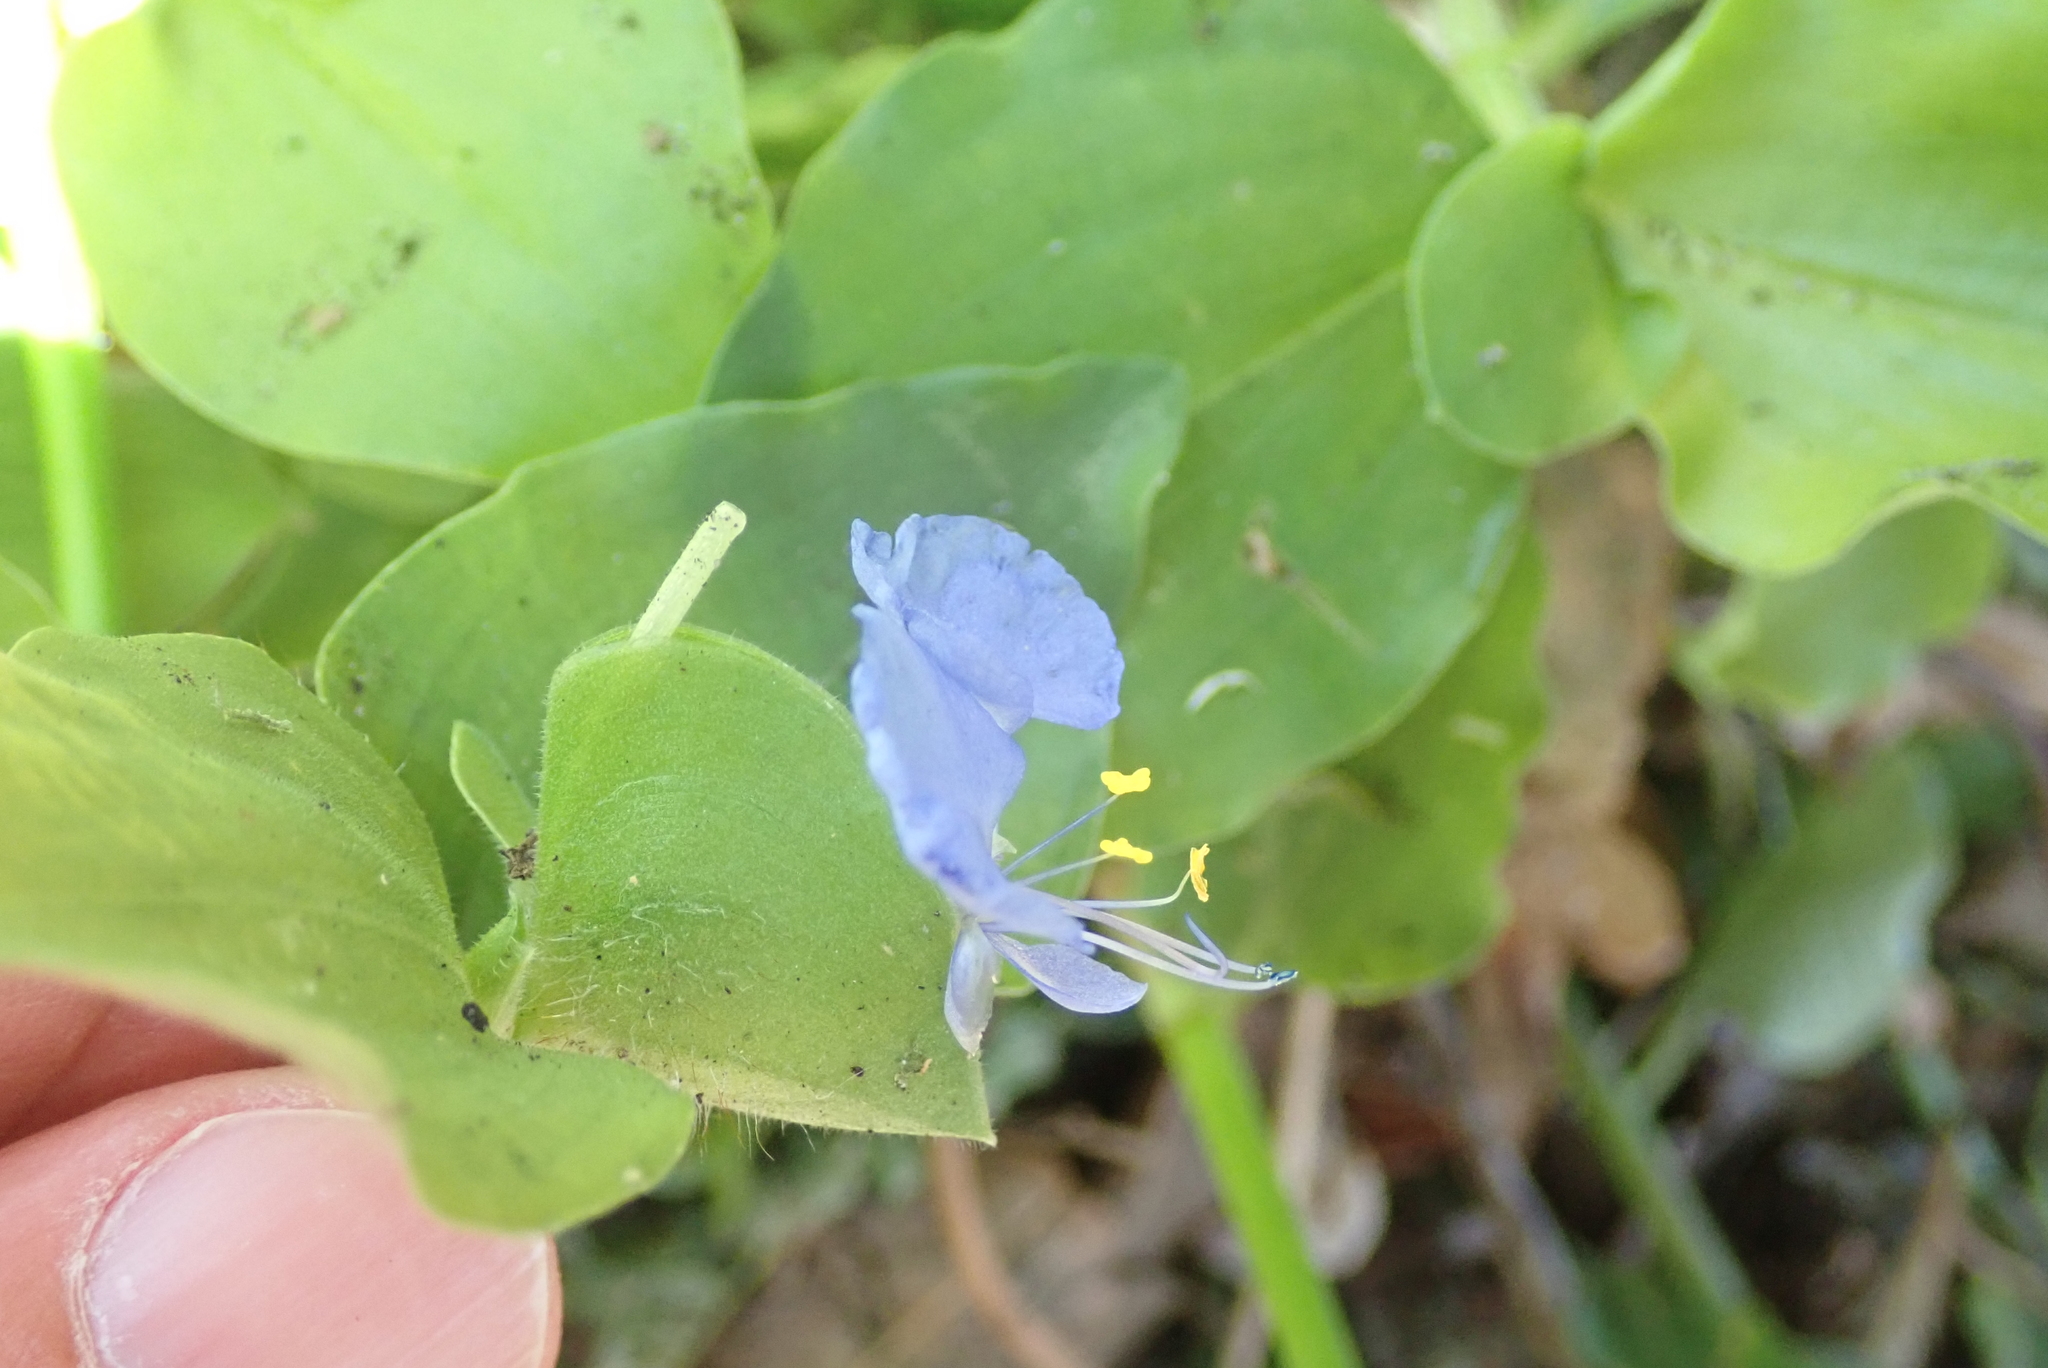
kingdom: Plantae
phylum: Tracheophyta
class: Liliopsida
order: Commelinales
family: Commelinaceae
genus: Commelina
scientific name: Commelina benghalensis
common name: Jio
